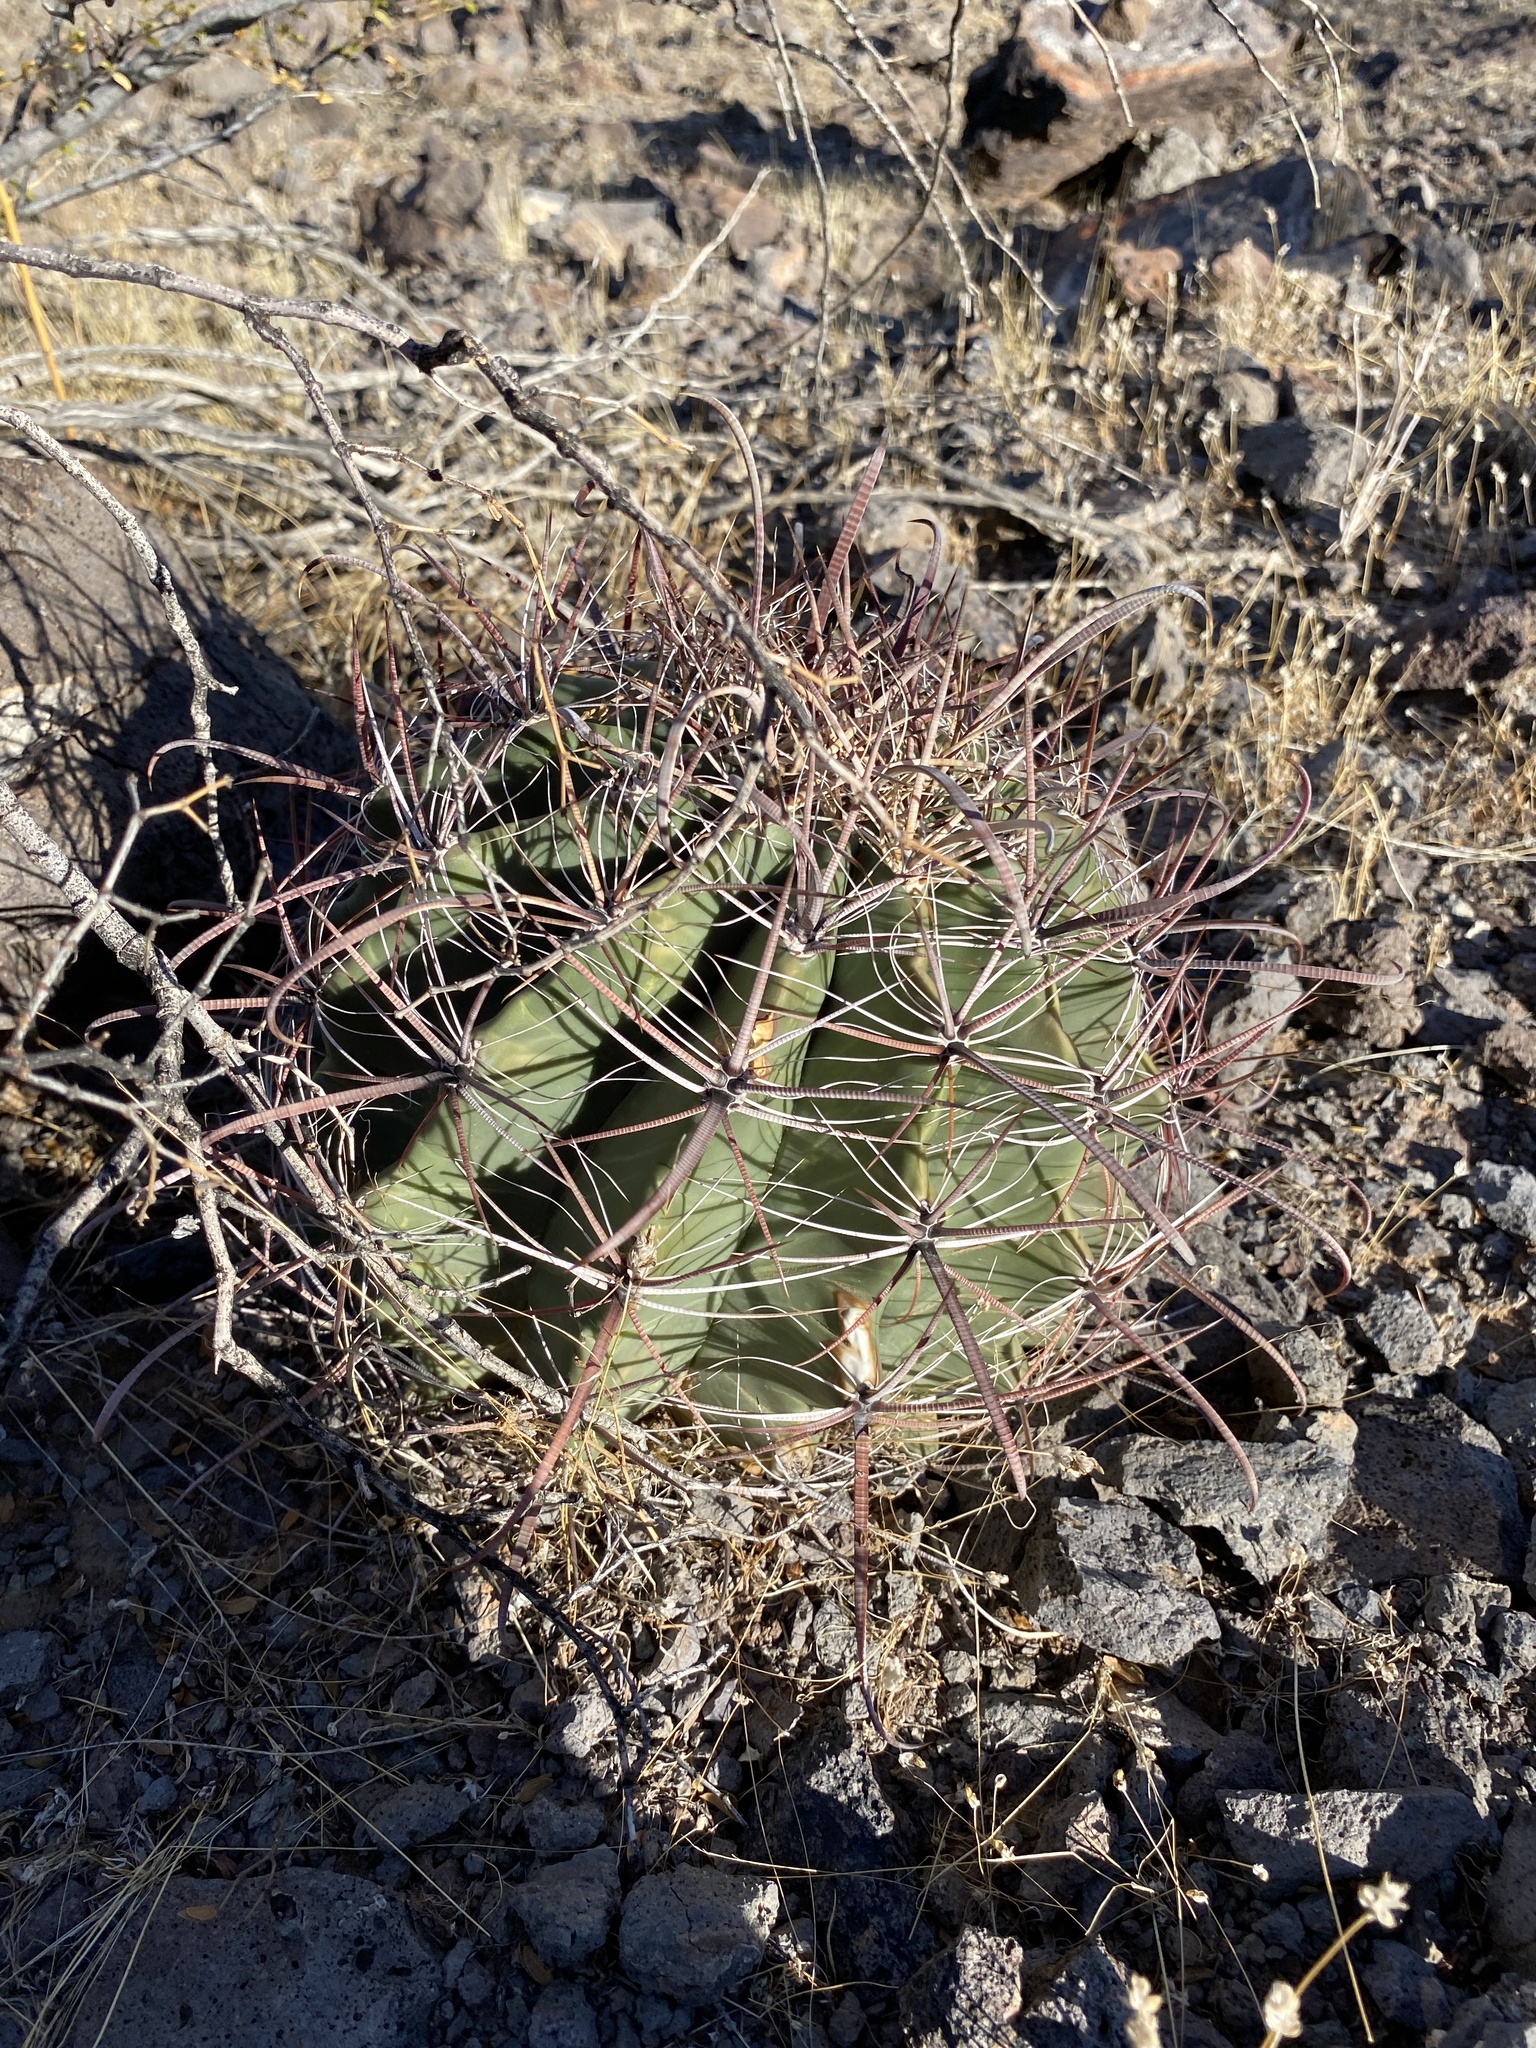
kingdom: Plantae
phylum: Tracheophyta
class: Magnoliopsida
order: Caryophyllales
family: Cactaceae
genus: Ferocactus
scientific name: Ferocactus wislizeni
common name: Candy barrel cactus
